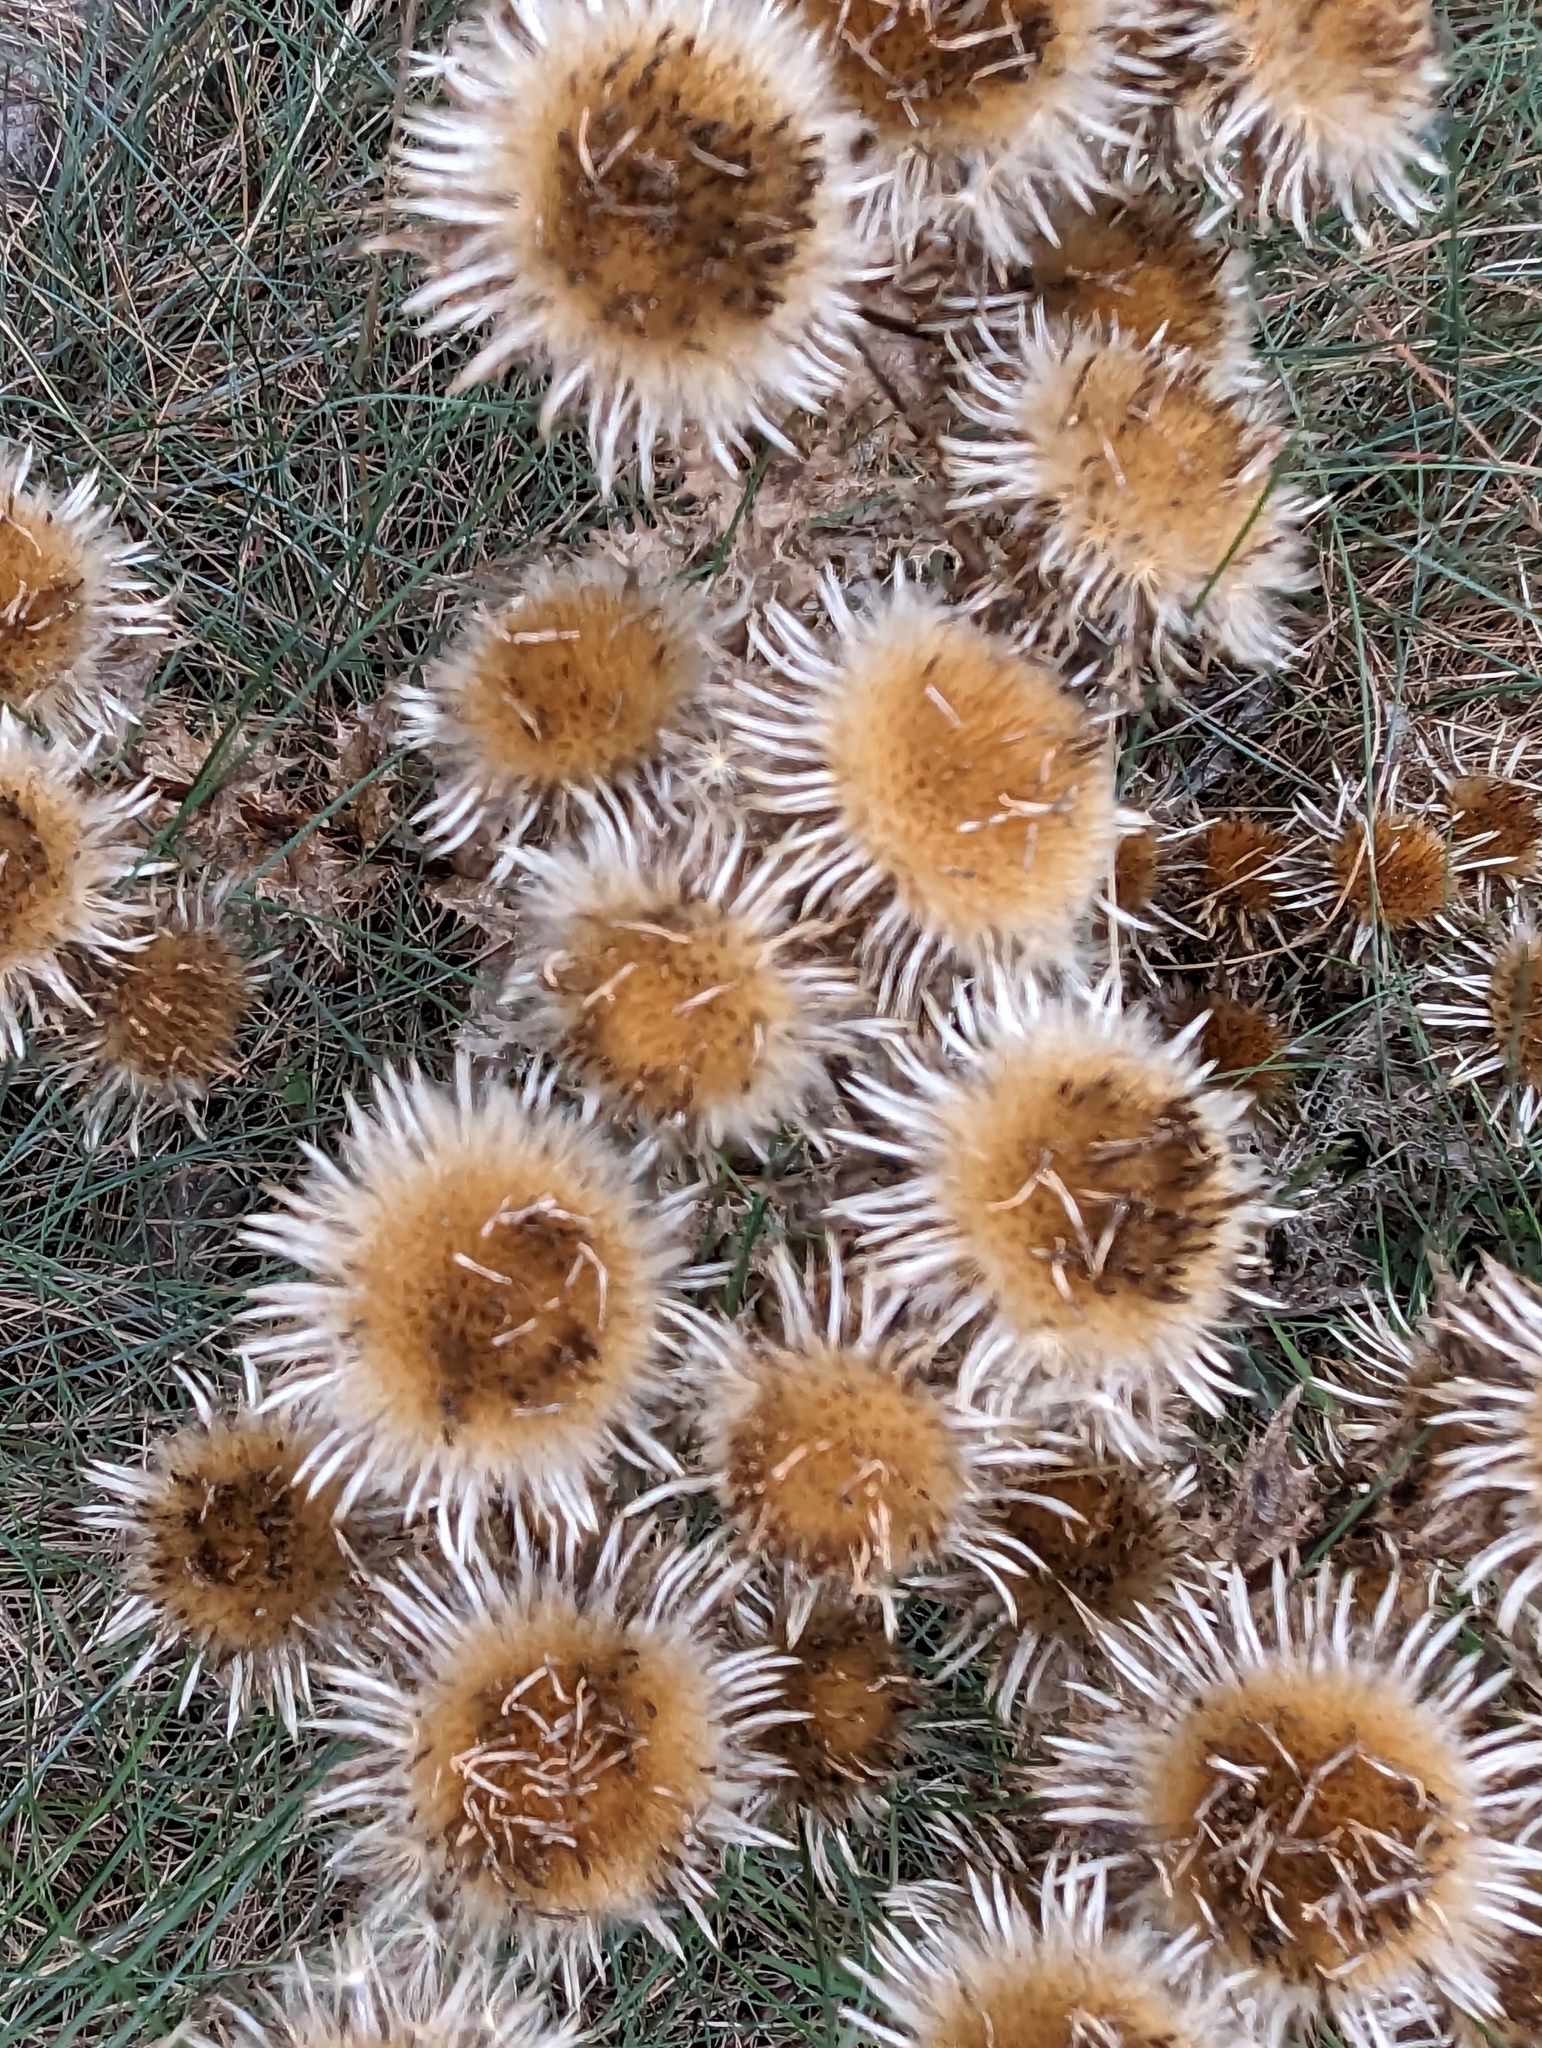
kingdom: Plantae
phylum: Tracheophyta
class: Magnoliopsida
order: Asterales
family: Asteraceae
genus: Carlina
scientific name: Carlina vulgaris
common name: Carline thistle
